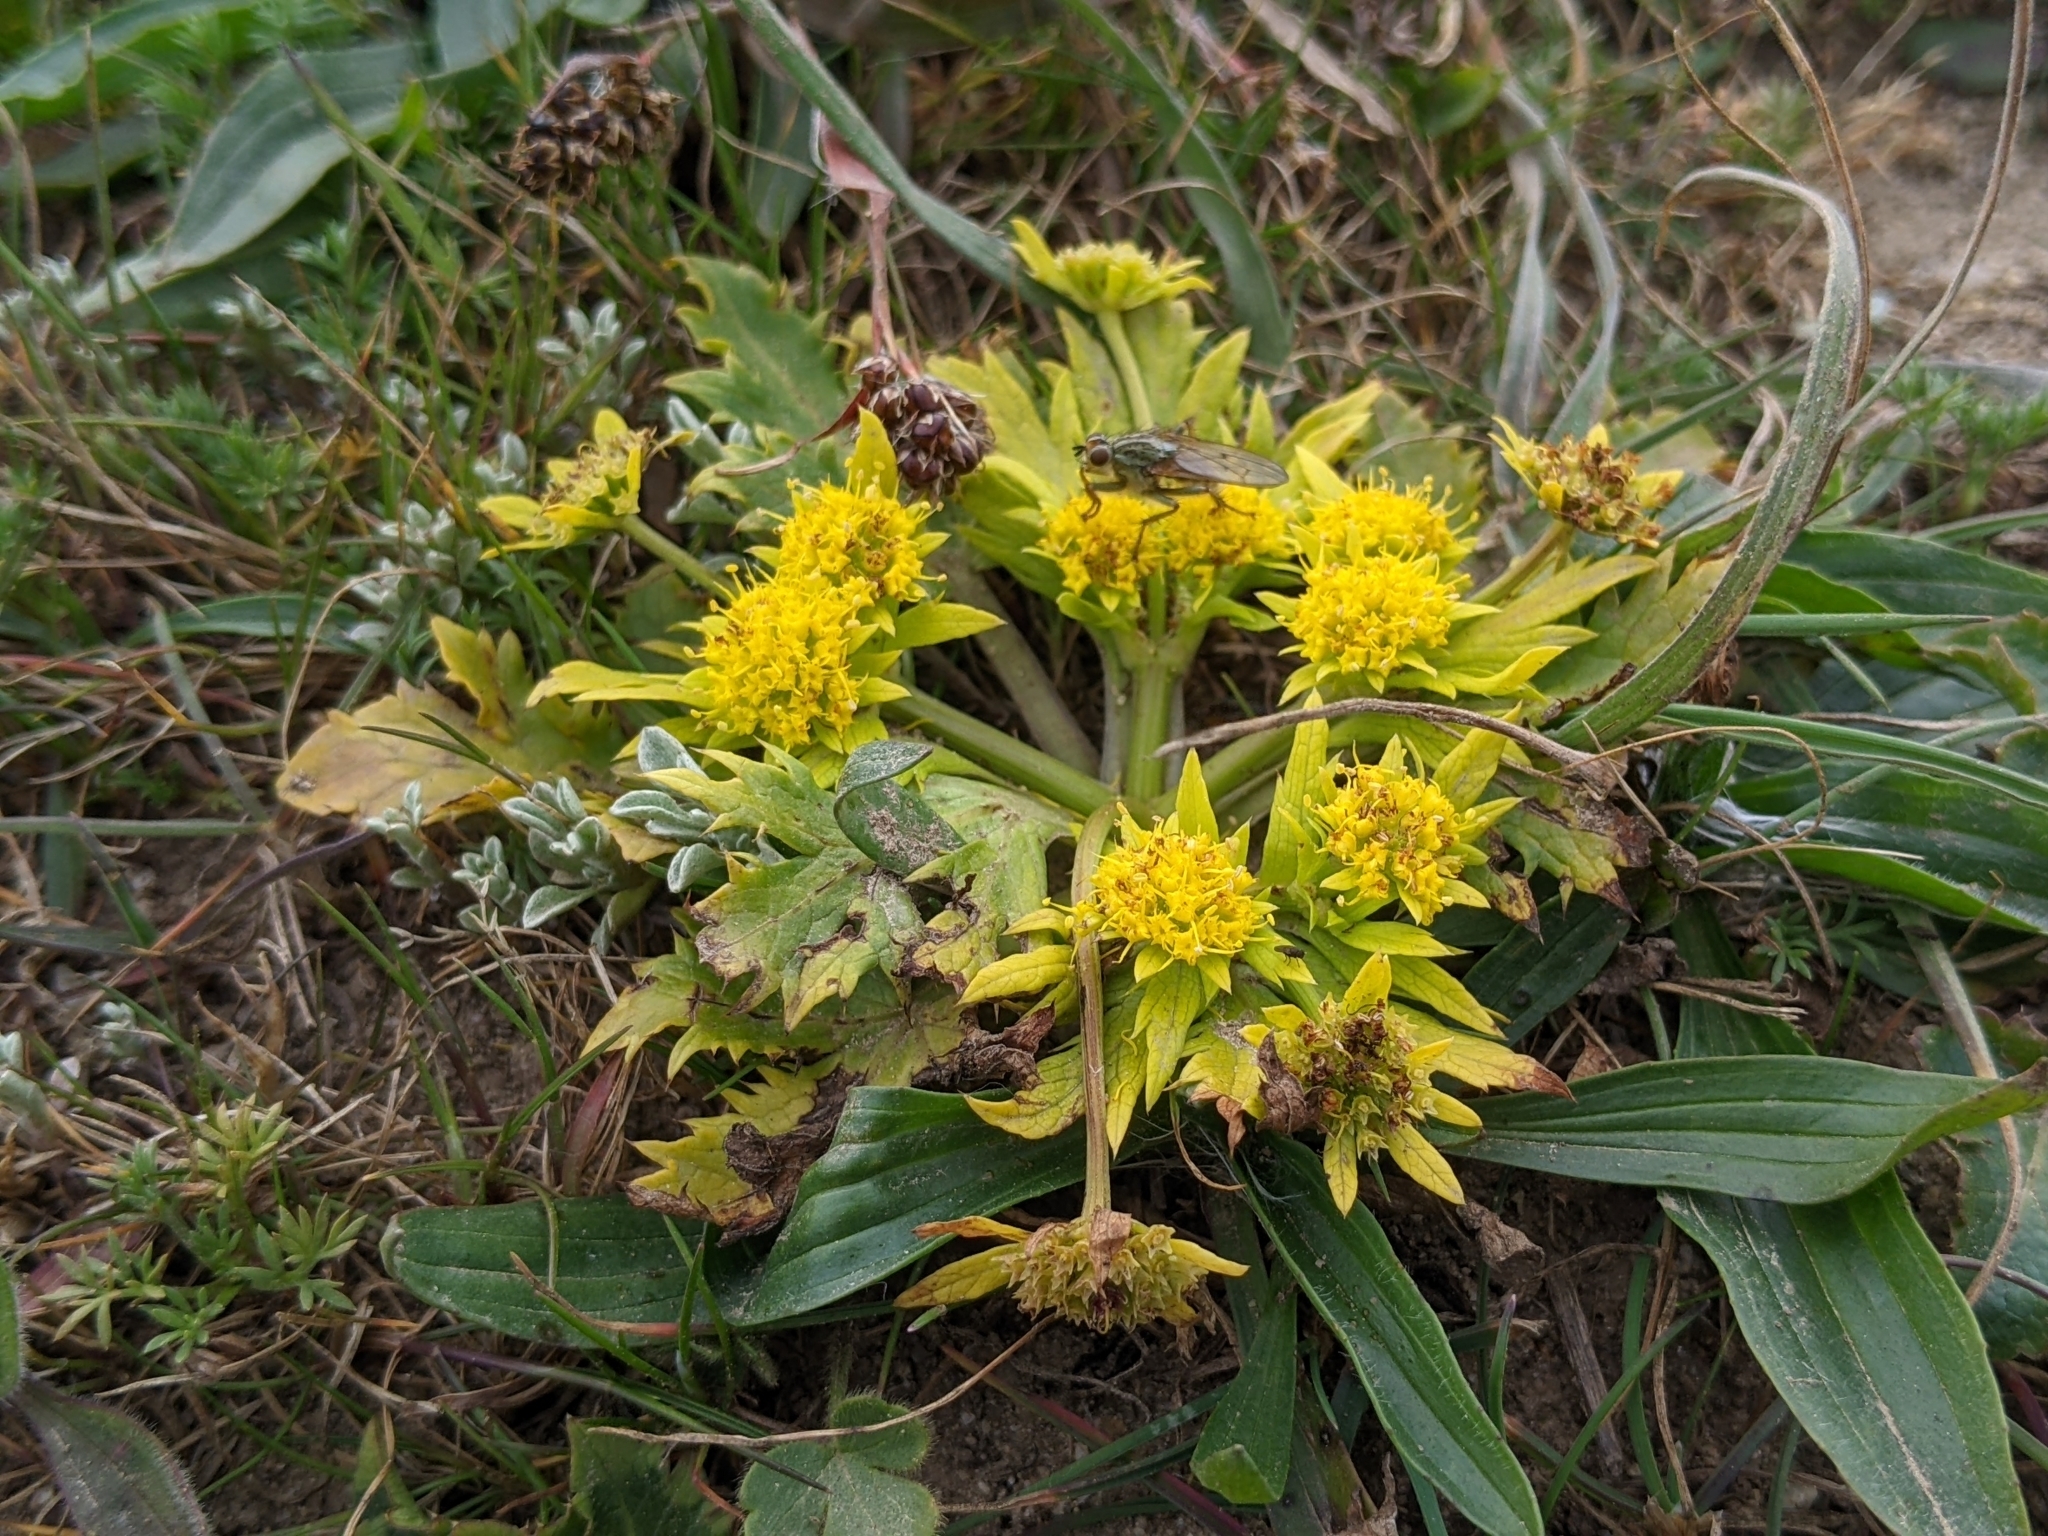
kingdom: Plantae
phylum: Tracheophyta
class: Magnoliopsida
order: Apiales
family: Apiaceae
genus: Sanicula
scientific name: Sanicula arctopoides
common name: Footsteps-of-spring
